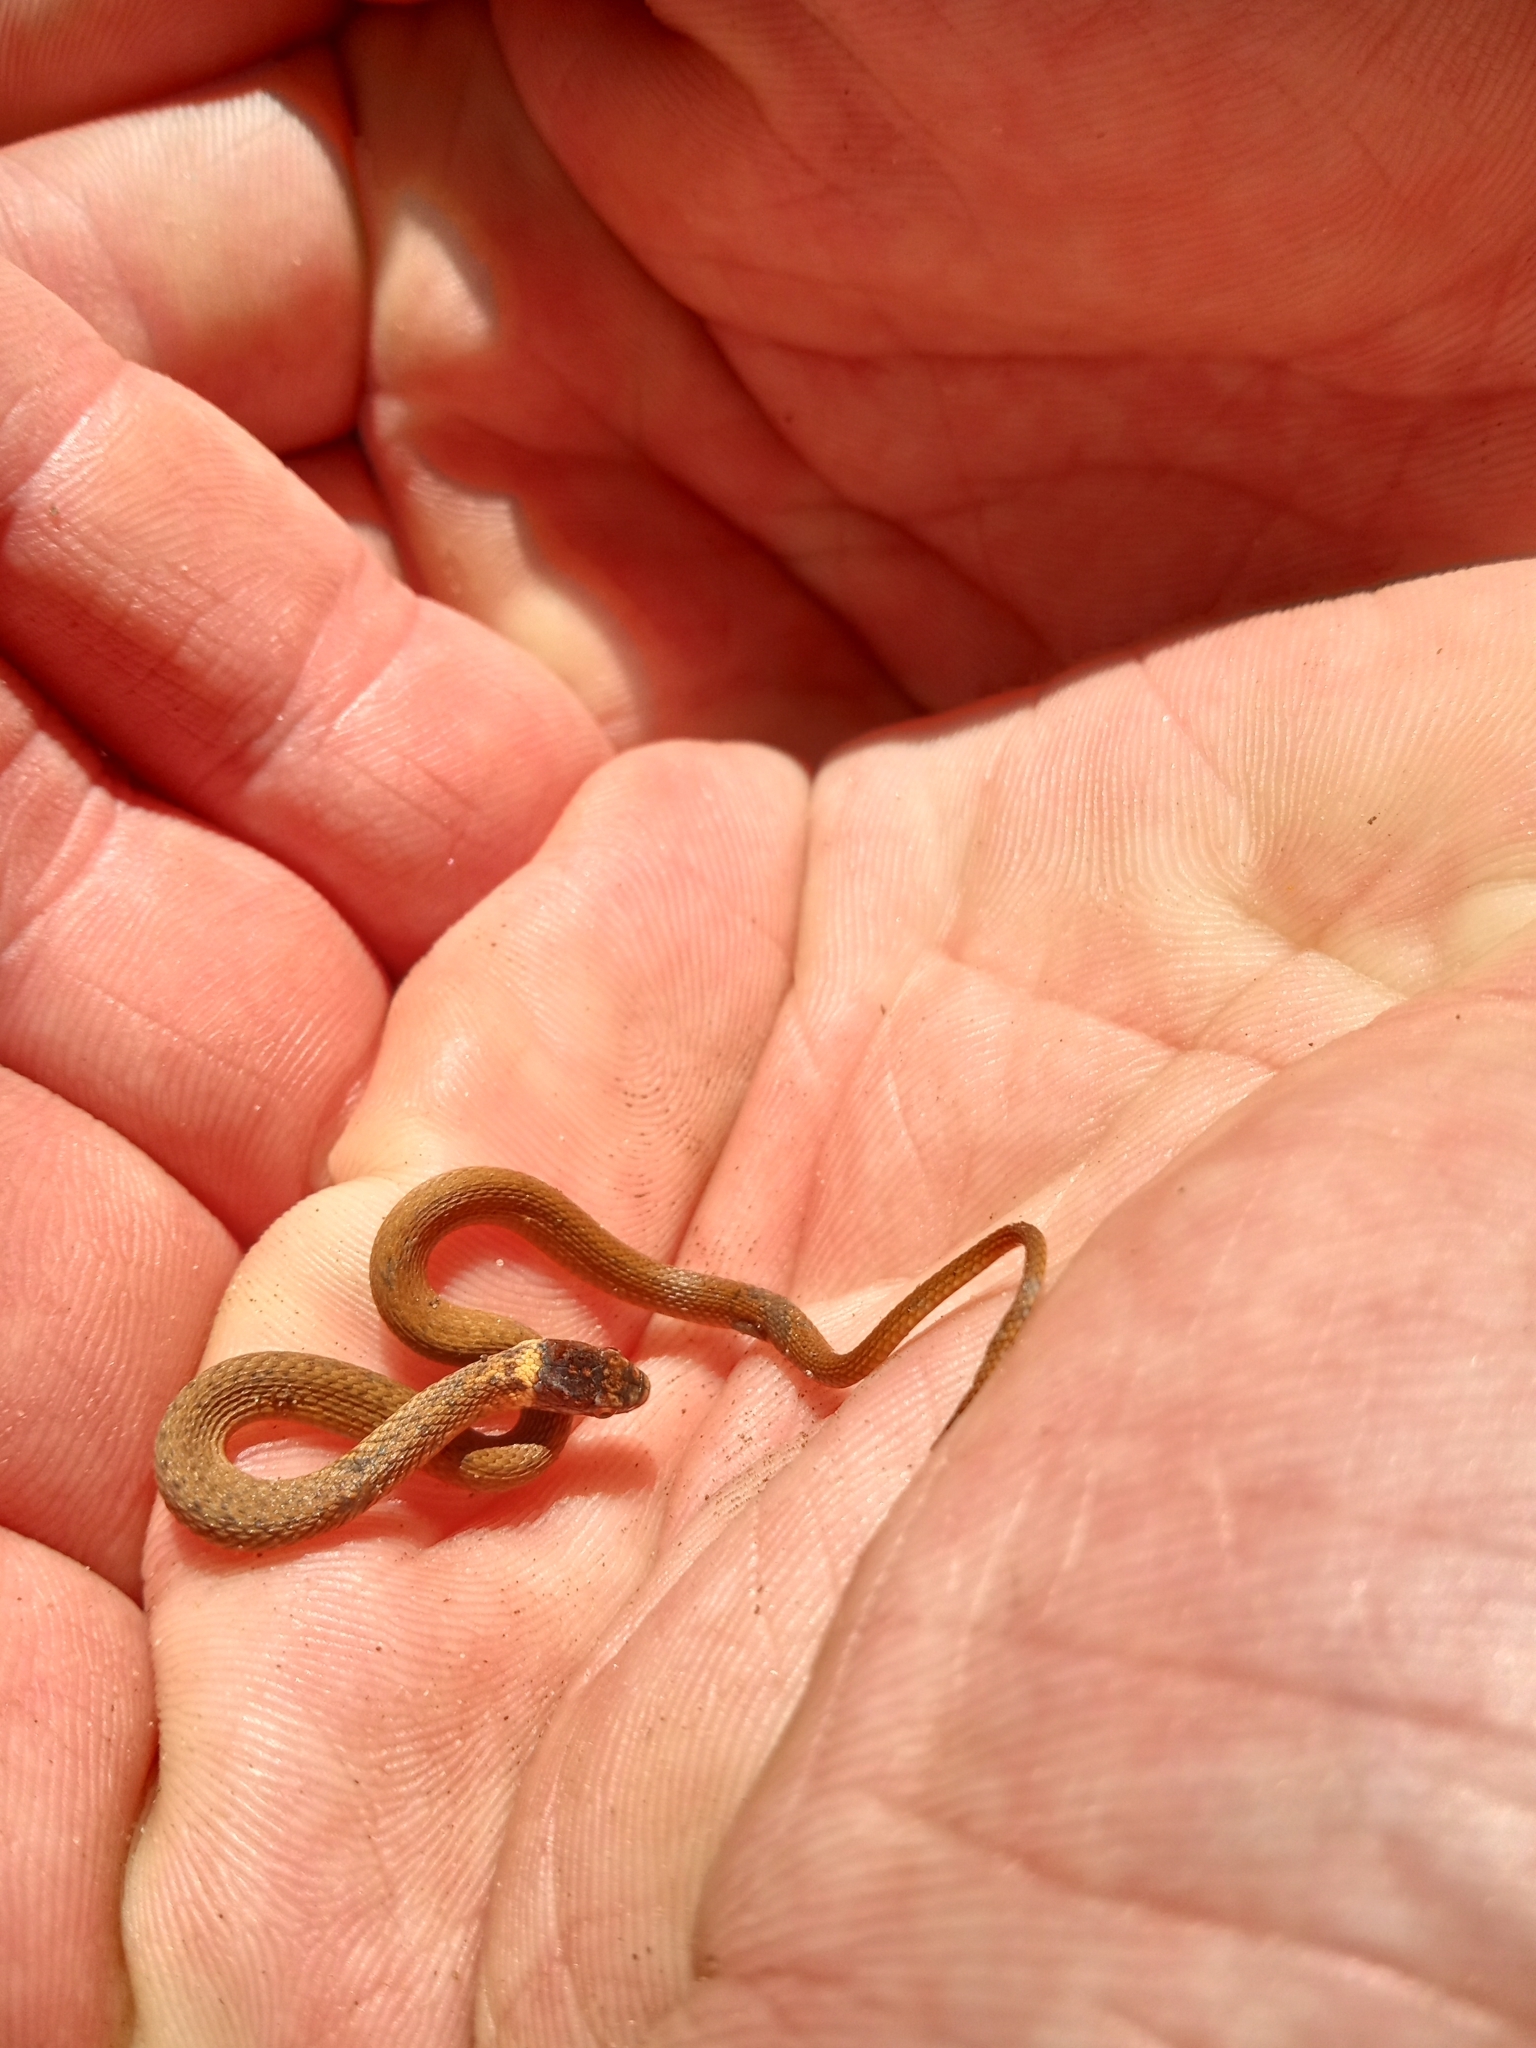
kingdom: Animalia
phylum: Chordata
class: Squamata
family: Colubridae
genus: Storeria
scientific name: Storeria occipitomaculata
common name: Redbelly snake
